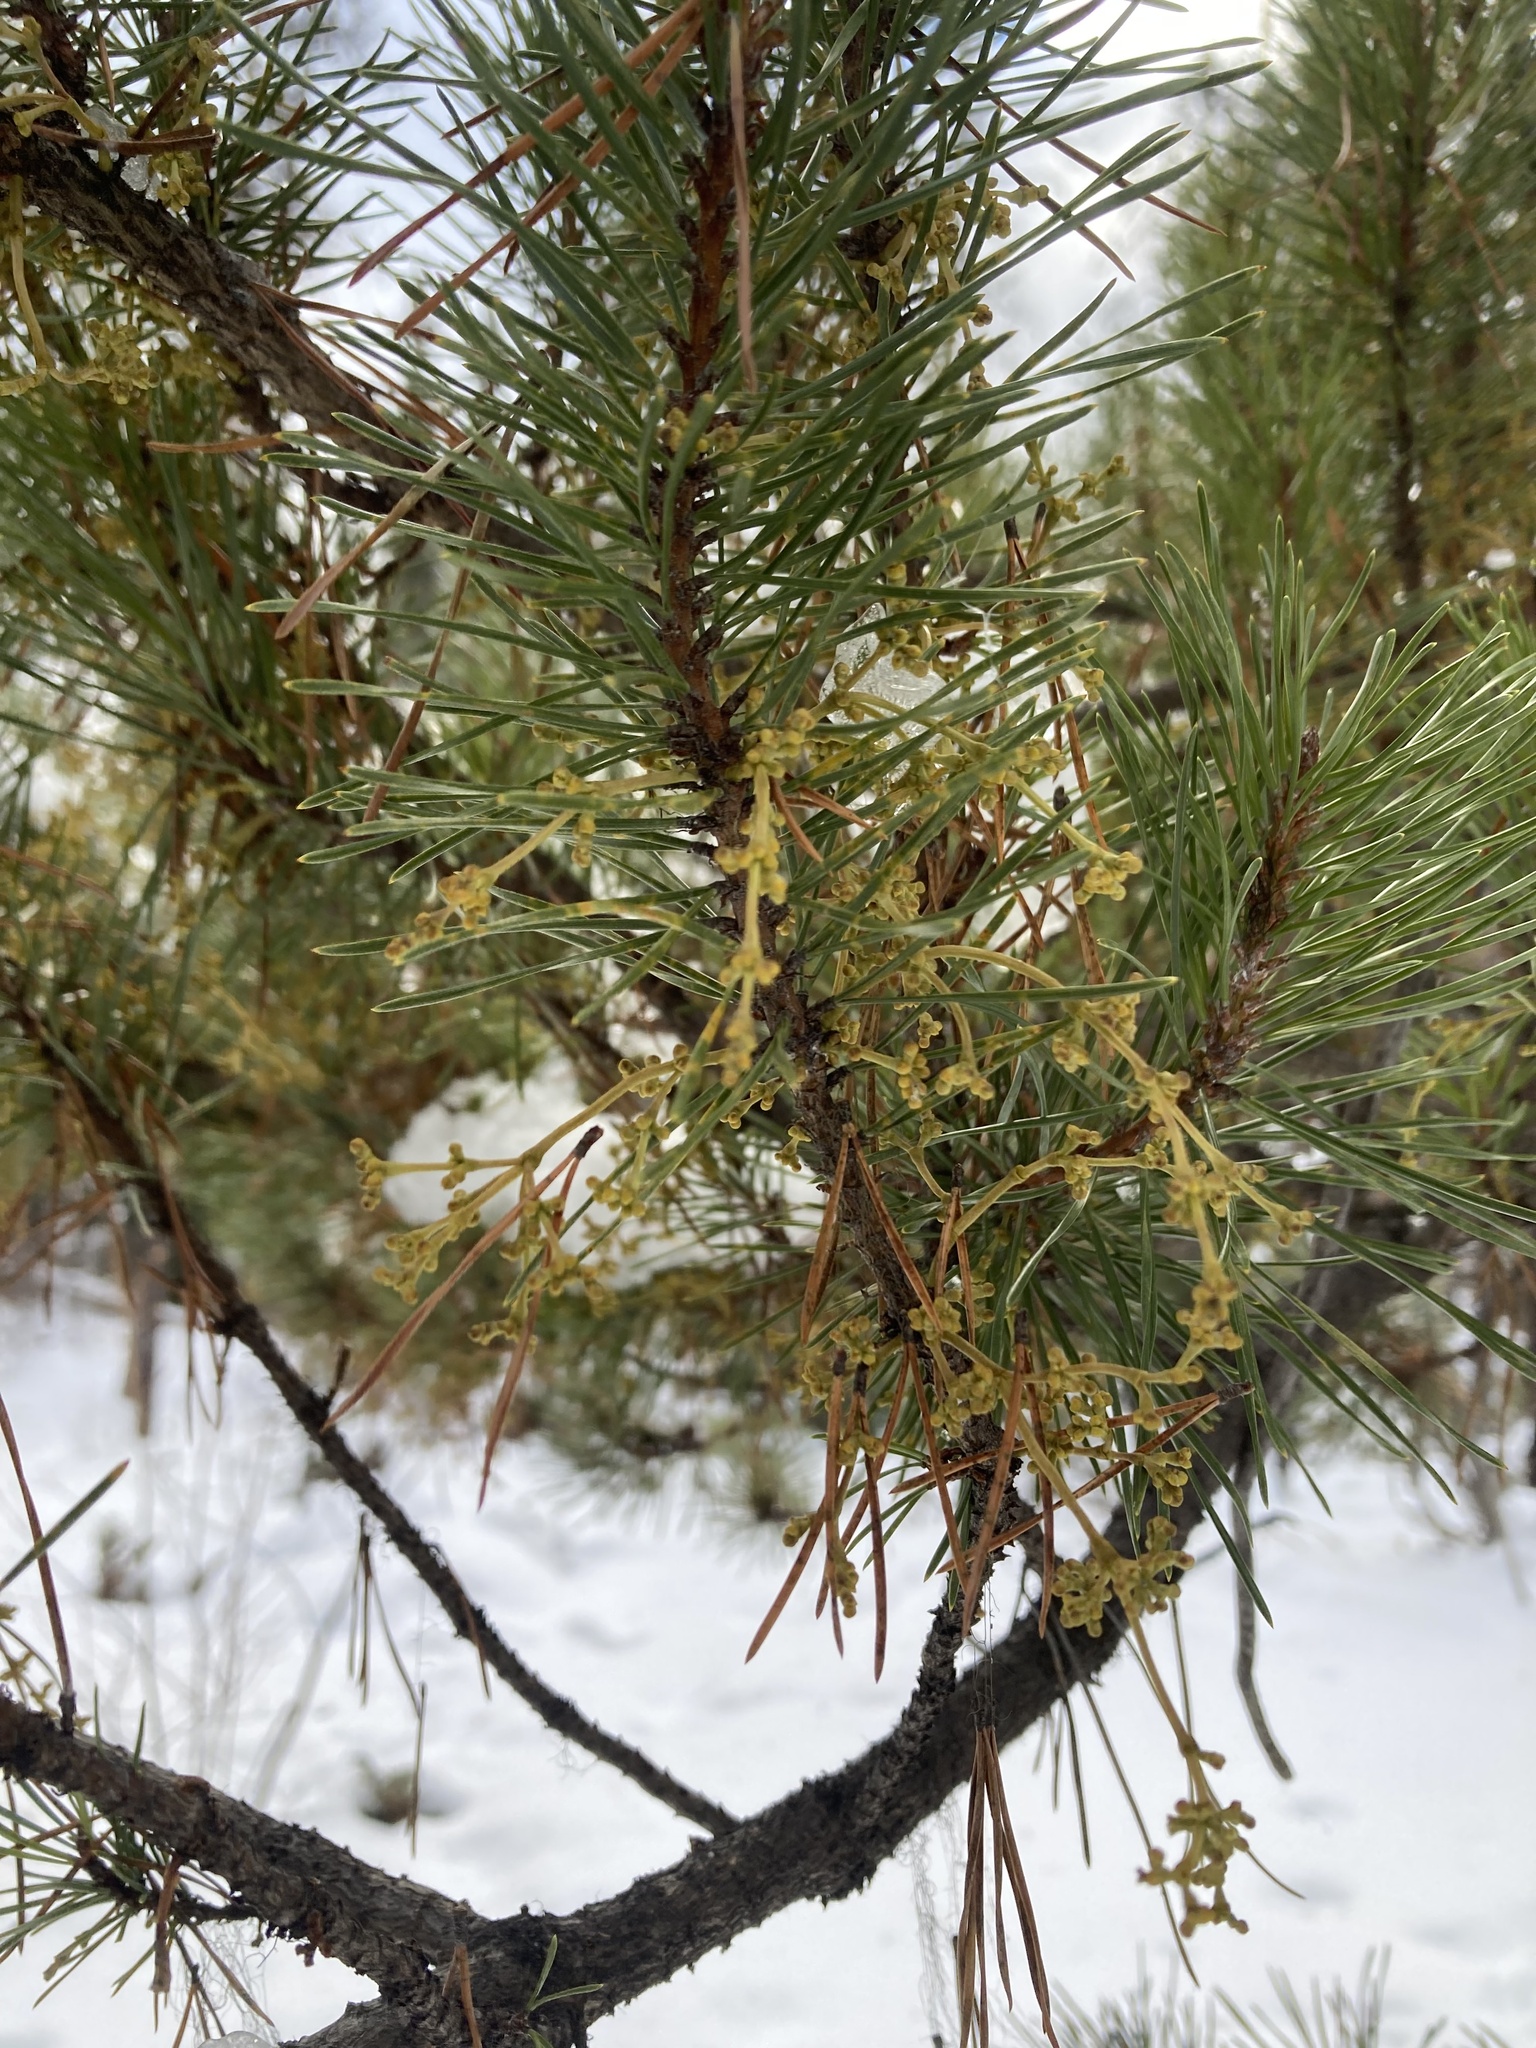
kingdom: Plantae
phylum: Tracheophyta
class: Magnoliopsida
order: Santalales
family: Viscaceae
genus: Arceuthobium
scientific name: Arceuthobium americanum
